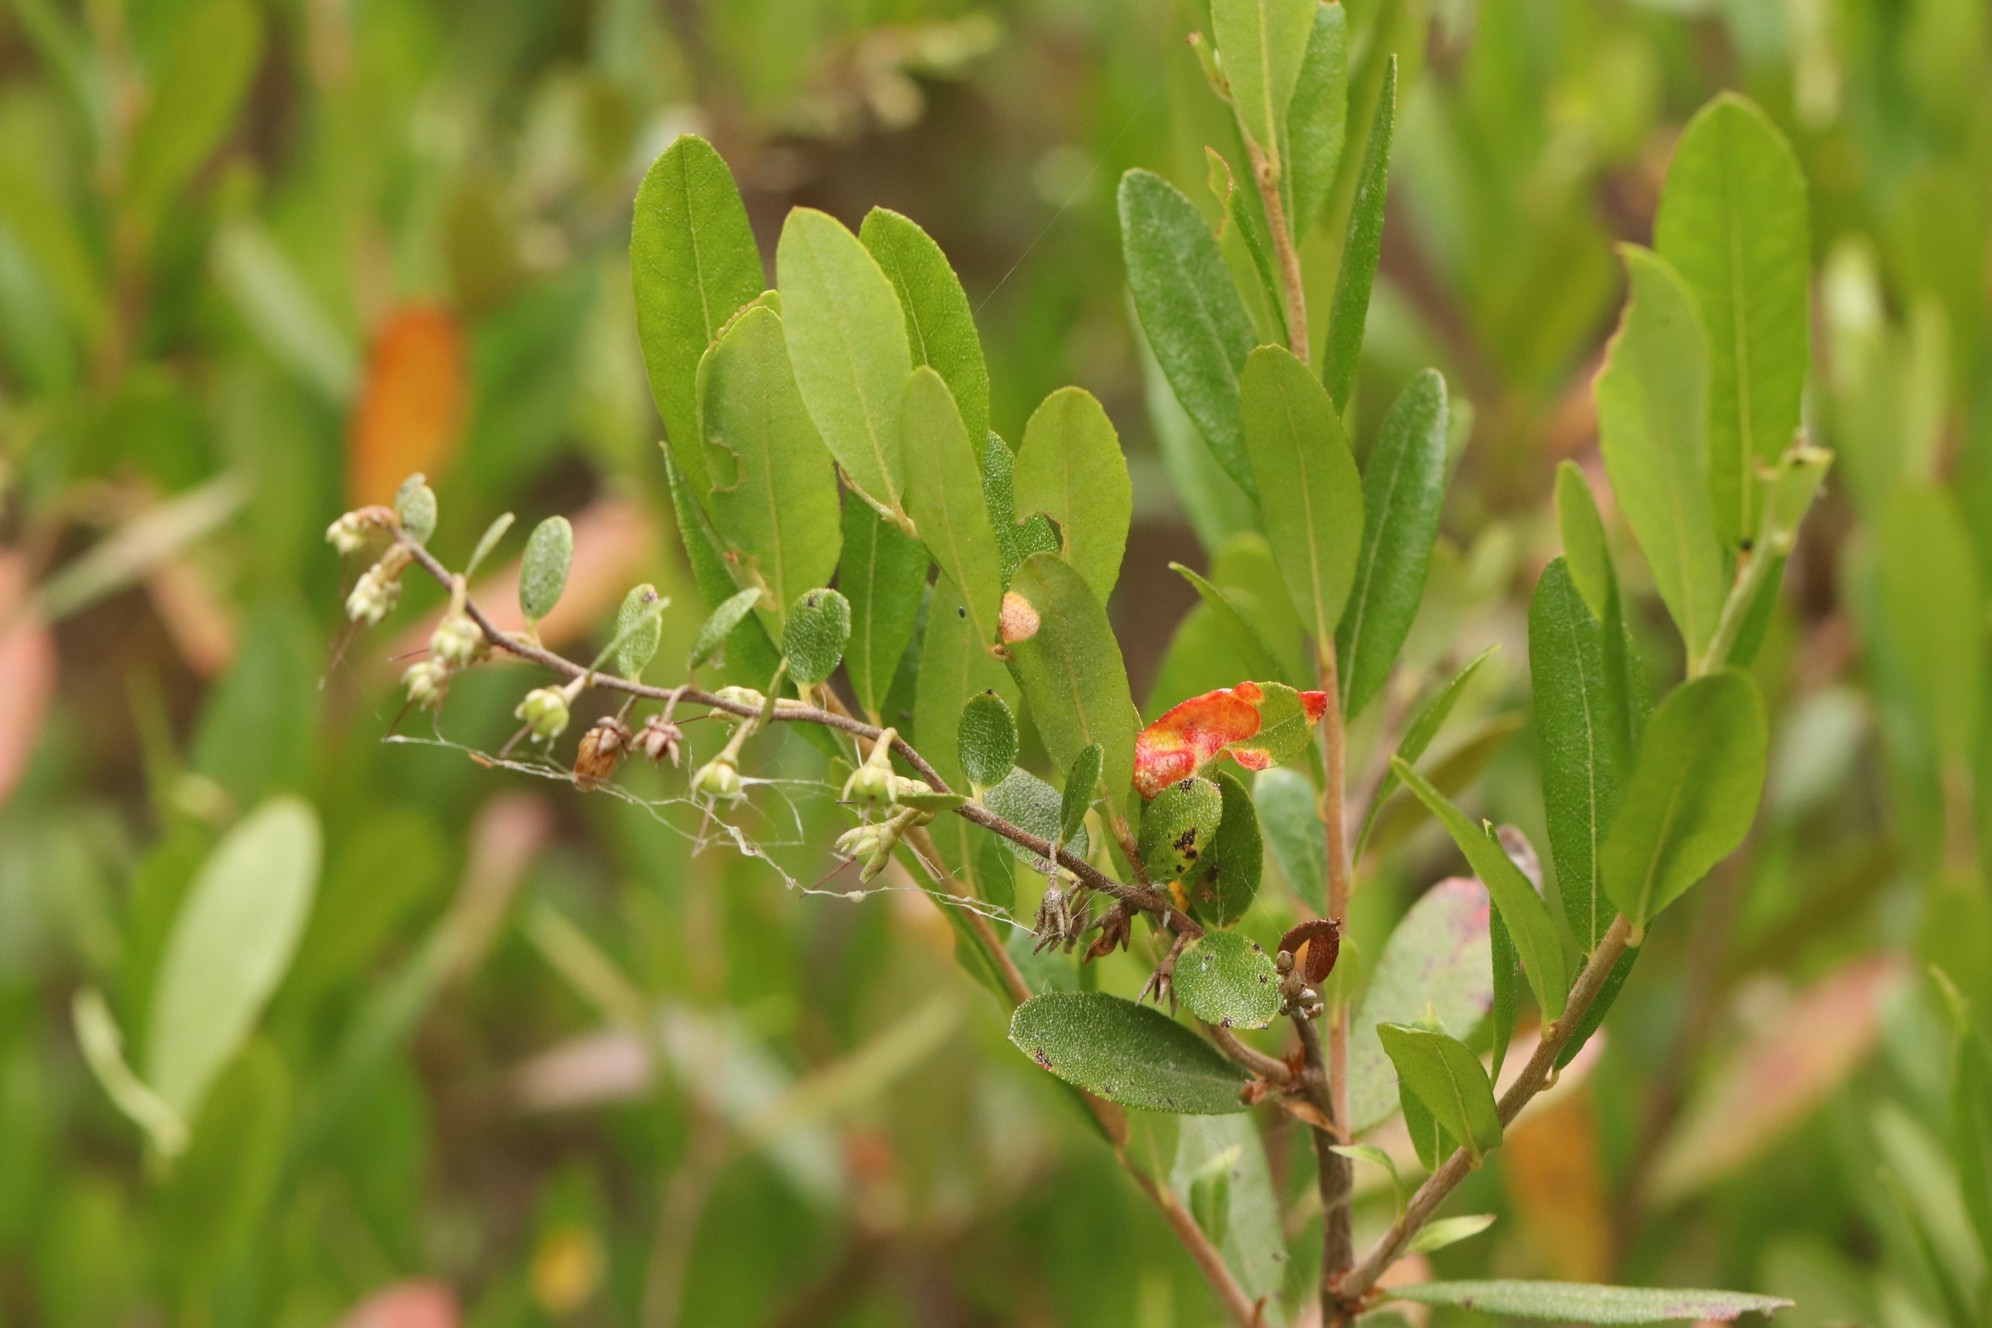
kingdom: Plantae
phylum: Tracheophyta
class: Magnoliopsida
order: Ericales
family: Ericaceae
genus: Chamaedaphne
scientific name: Chamaedaphne calyculata
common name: Leatherleaf
